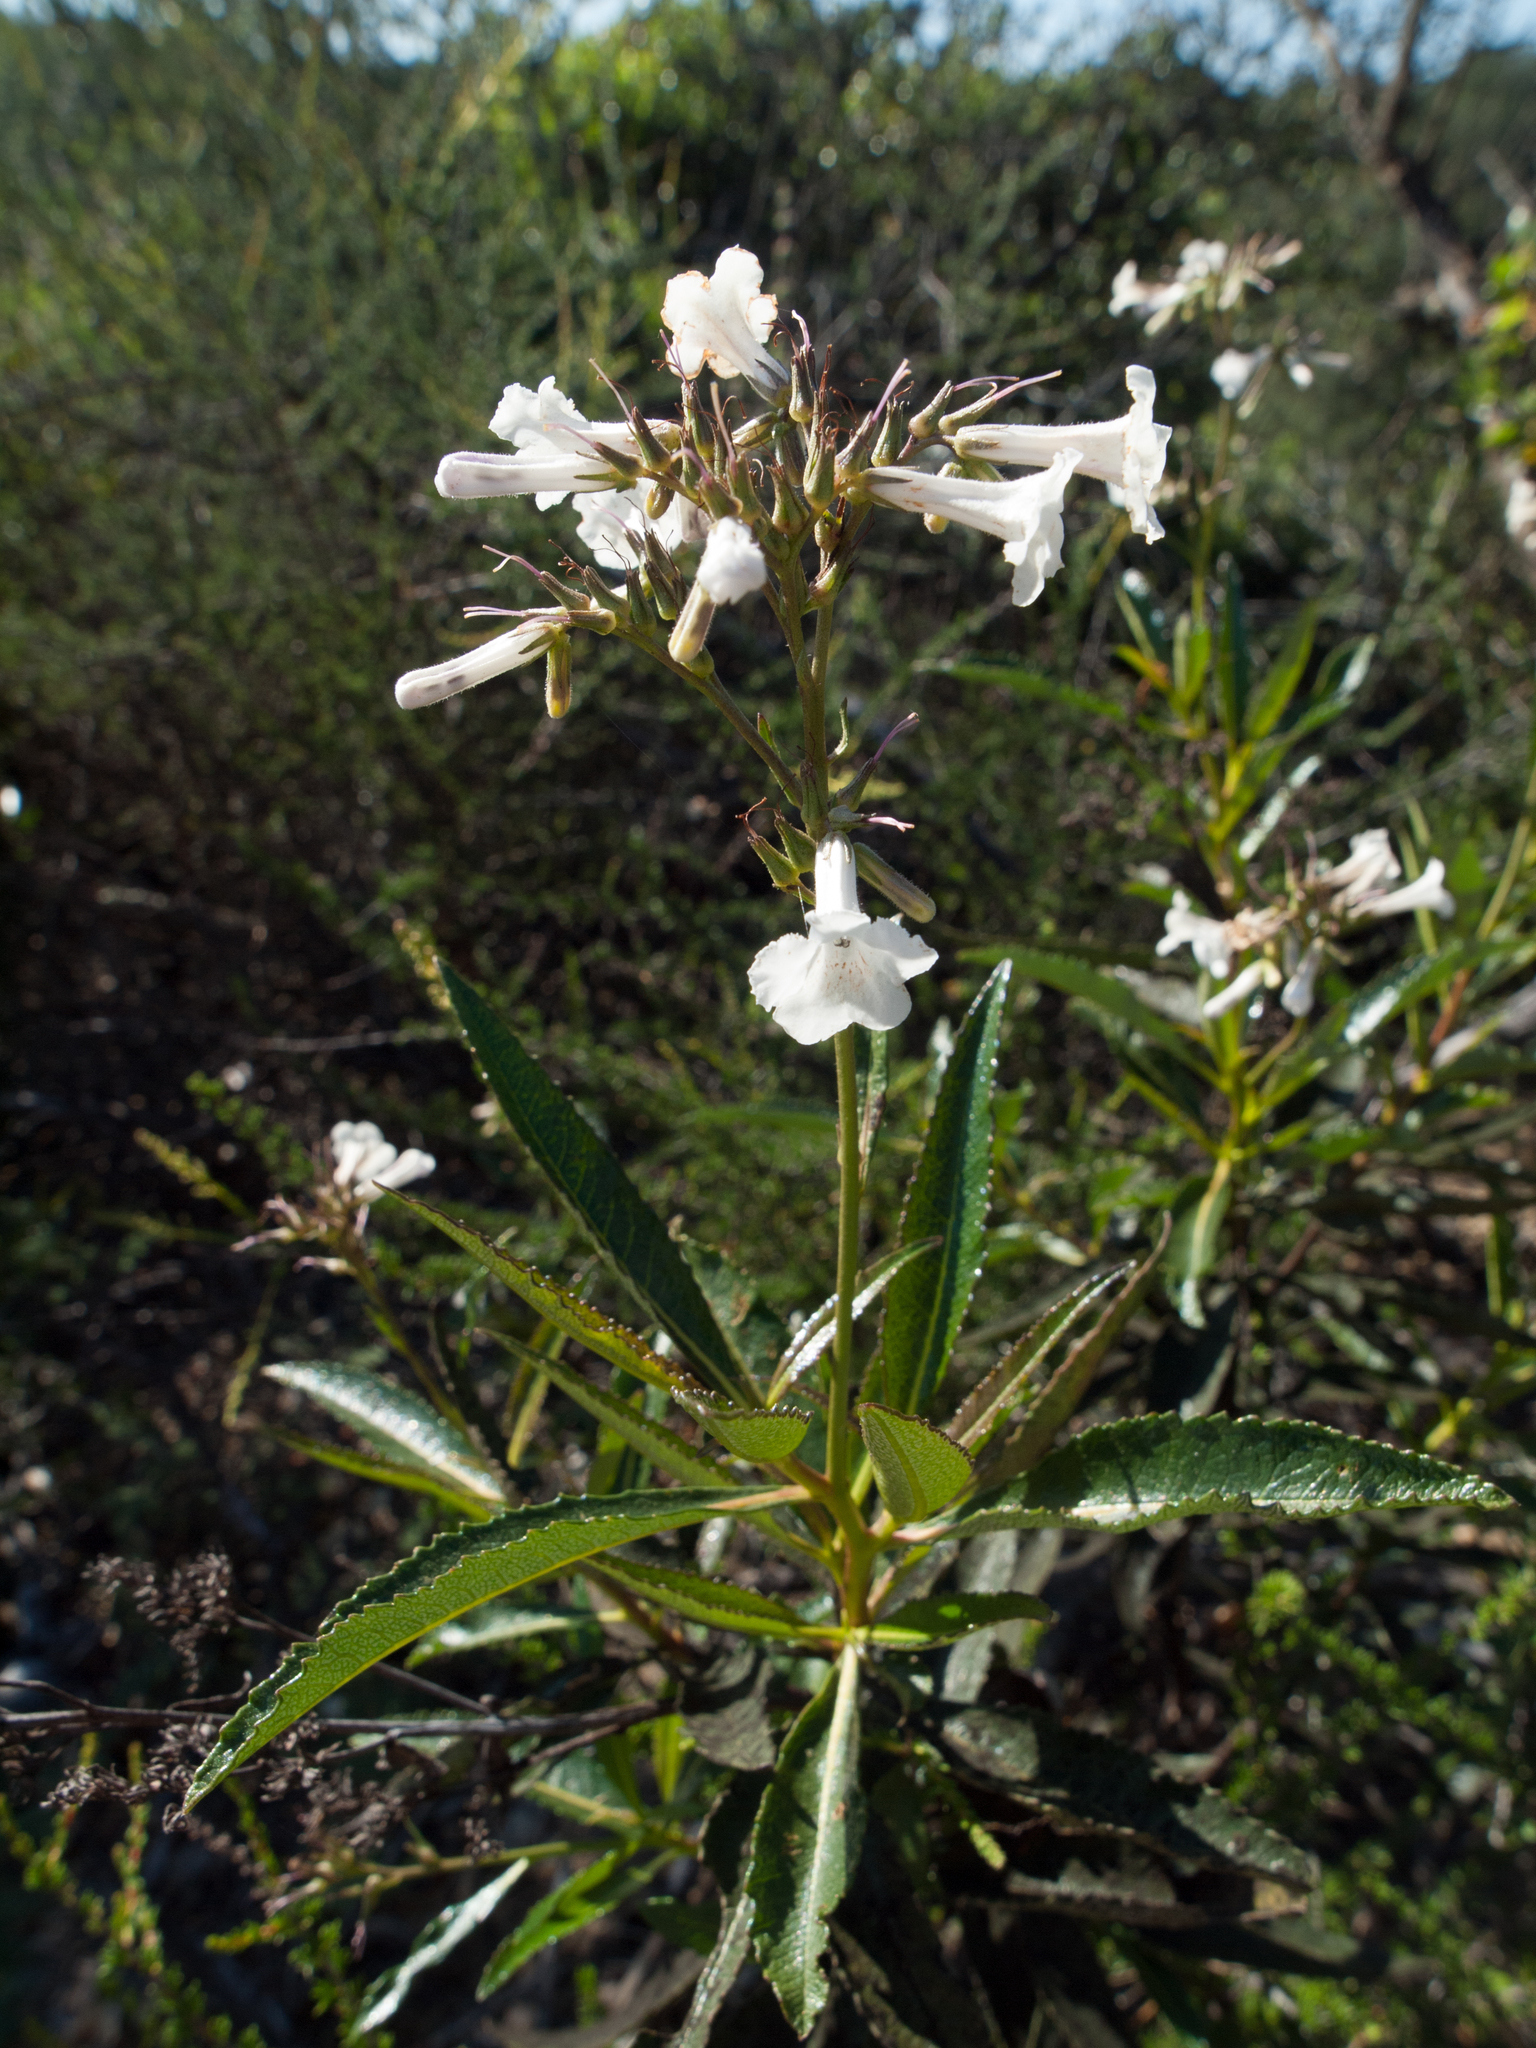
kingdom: Plantae
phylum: Tracheophyta
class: Magnoliopsida
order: Boraginales
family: Namaceae
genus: Eriodictyon
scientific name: Eriodictyon californicum
